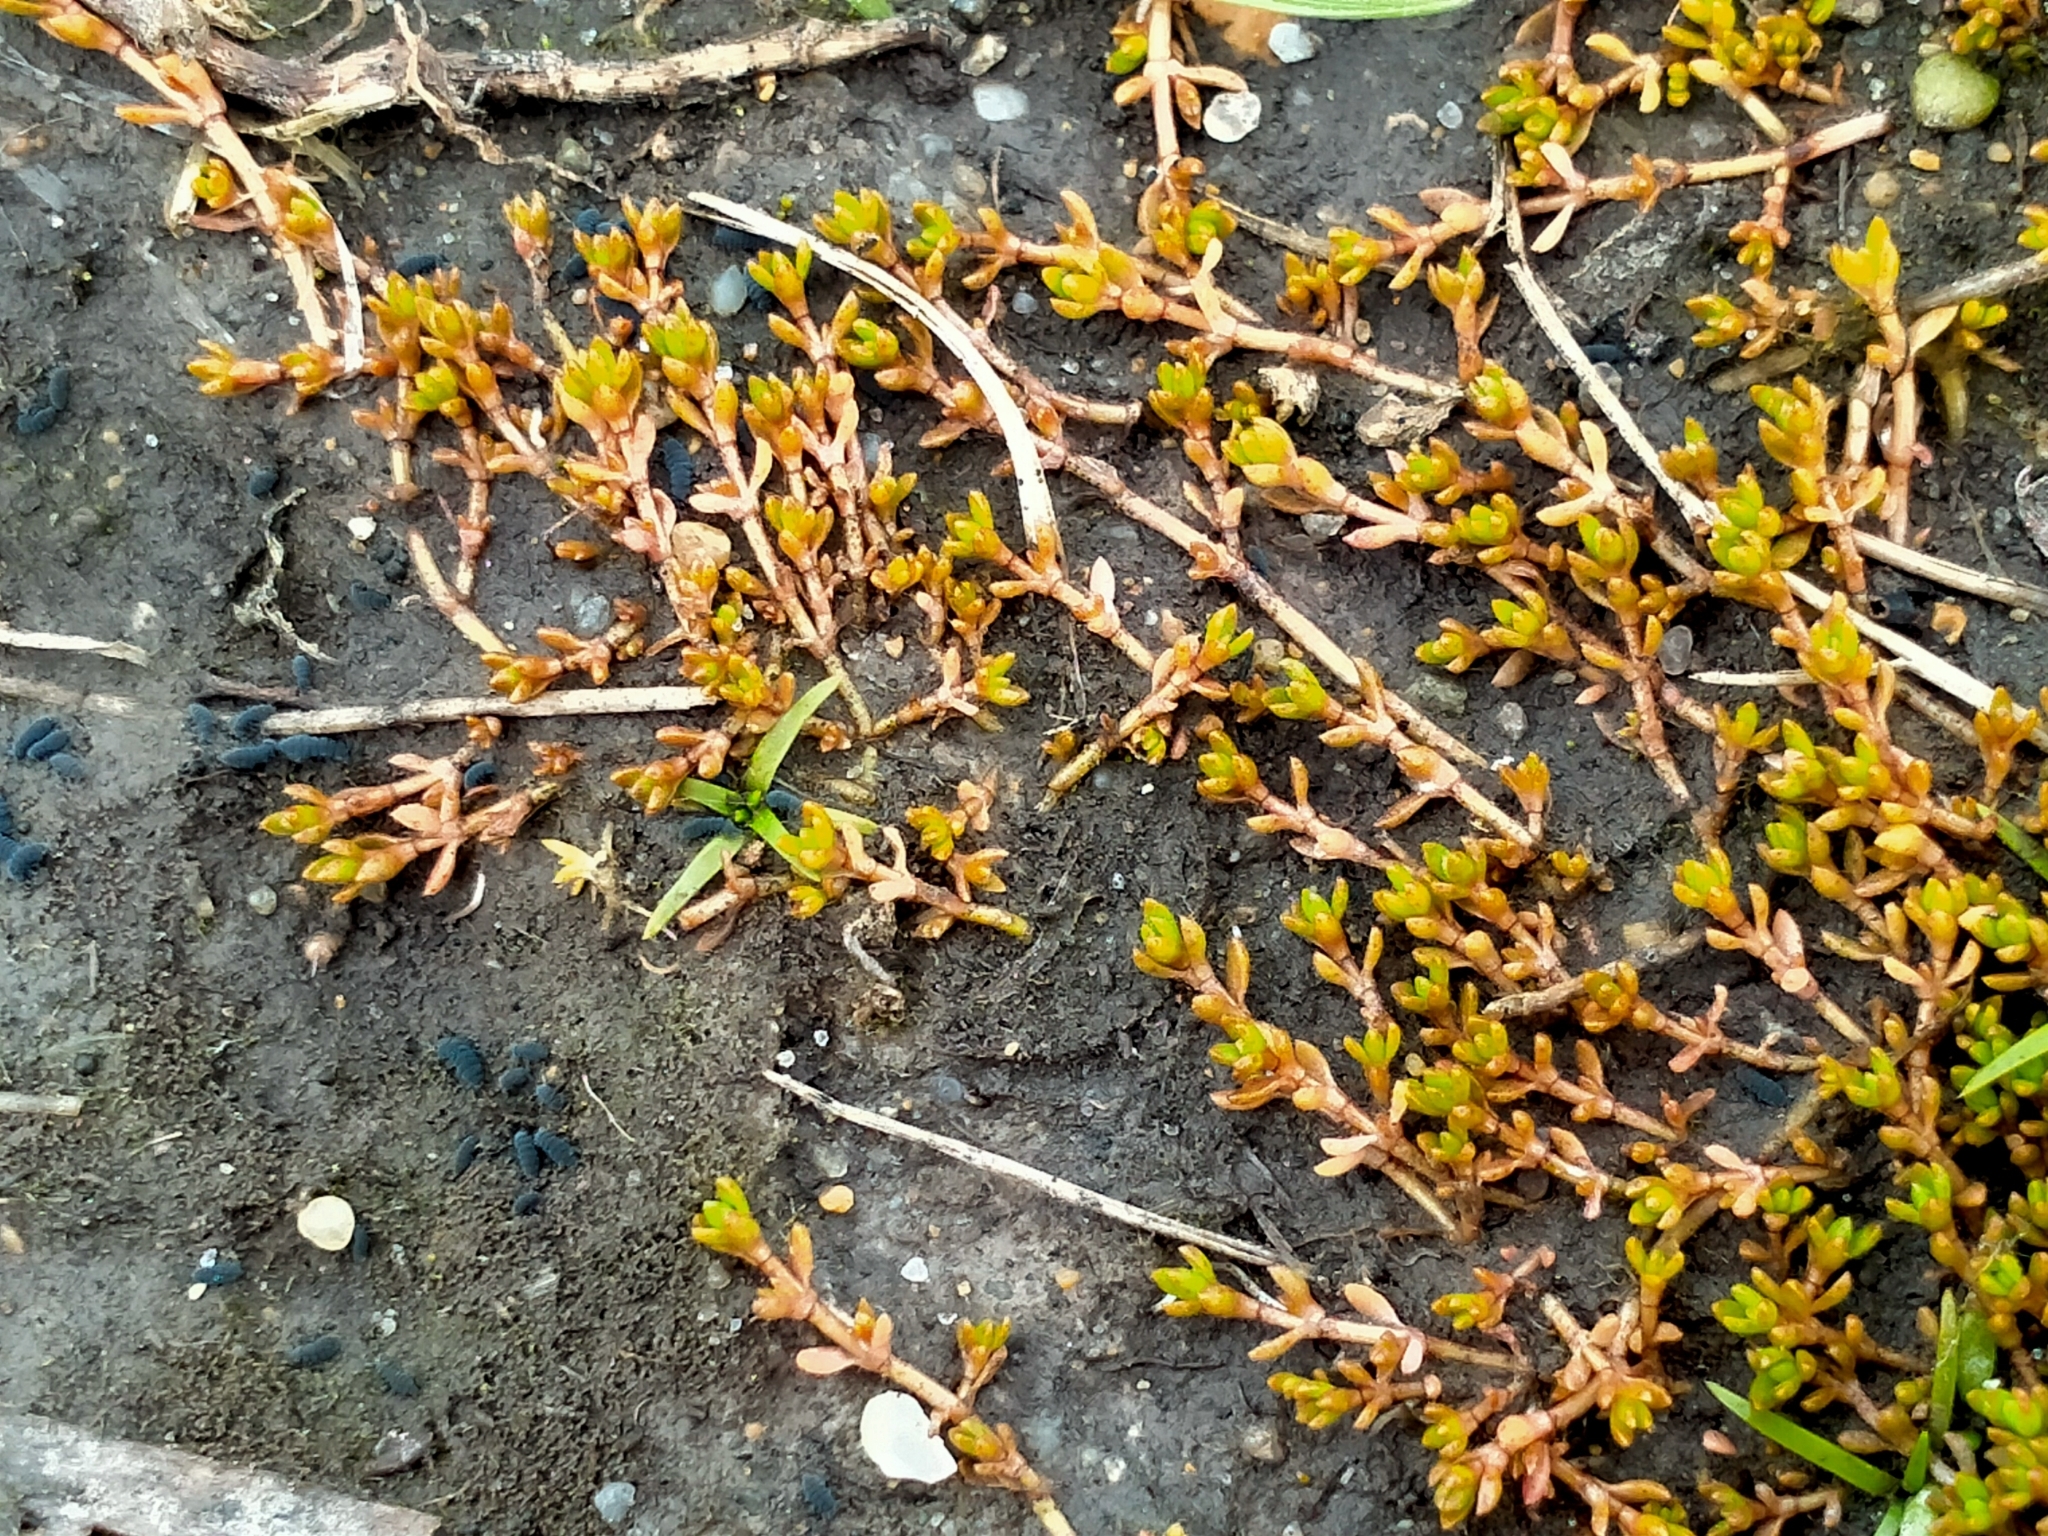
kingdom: Plantae
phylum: Tracheophyta
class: Magnoliopsida
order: Saxifragales
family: Crassulaceae
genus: Crassula
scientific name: Crassula sinclairii
